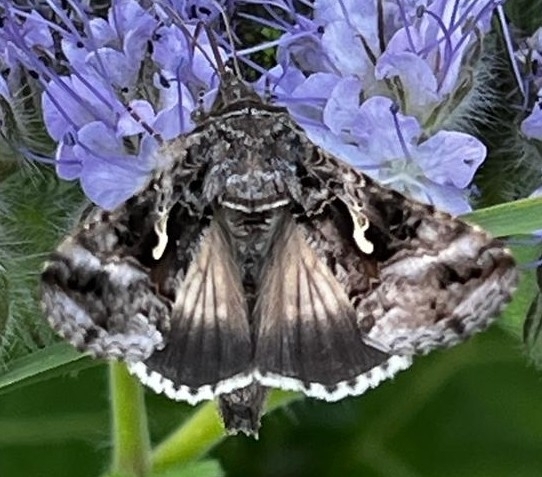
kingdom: Animalia
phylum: Arthropoda
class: Insecta
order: Lepidoptera
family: Noctuidae
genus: Autographa
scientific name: Autographa gamma
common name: Silver y
